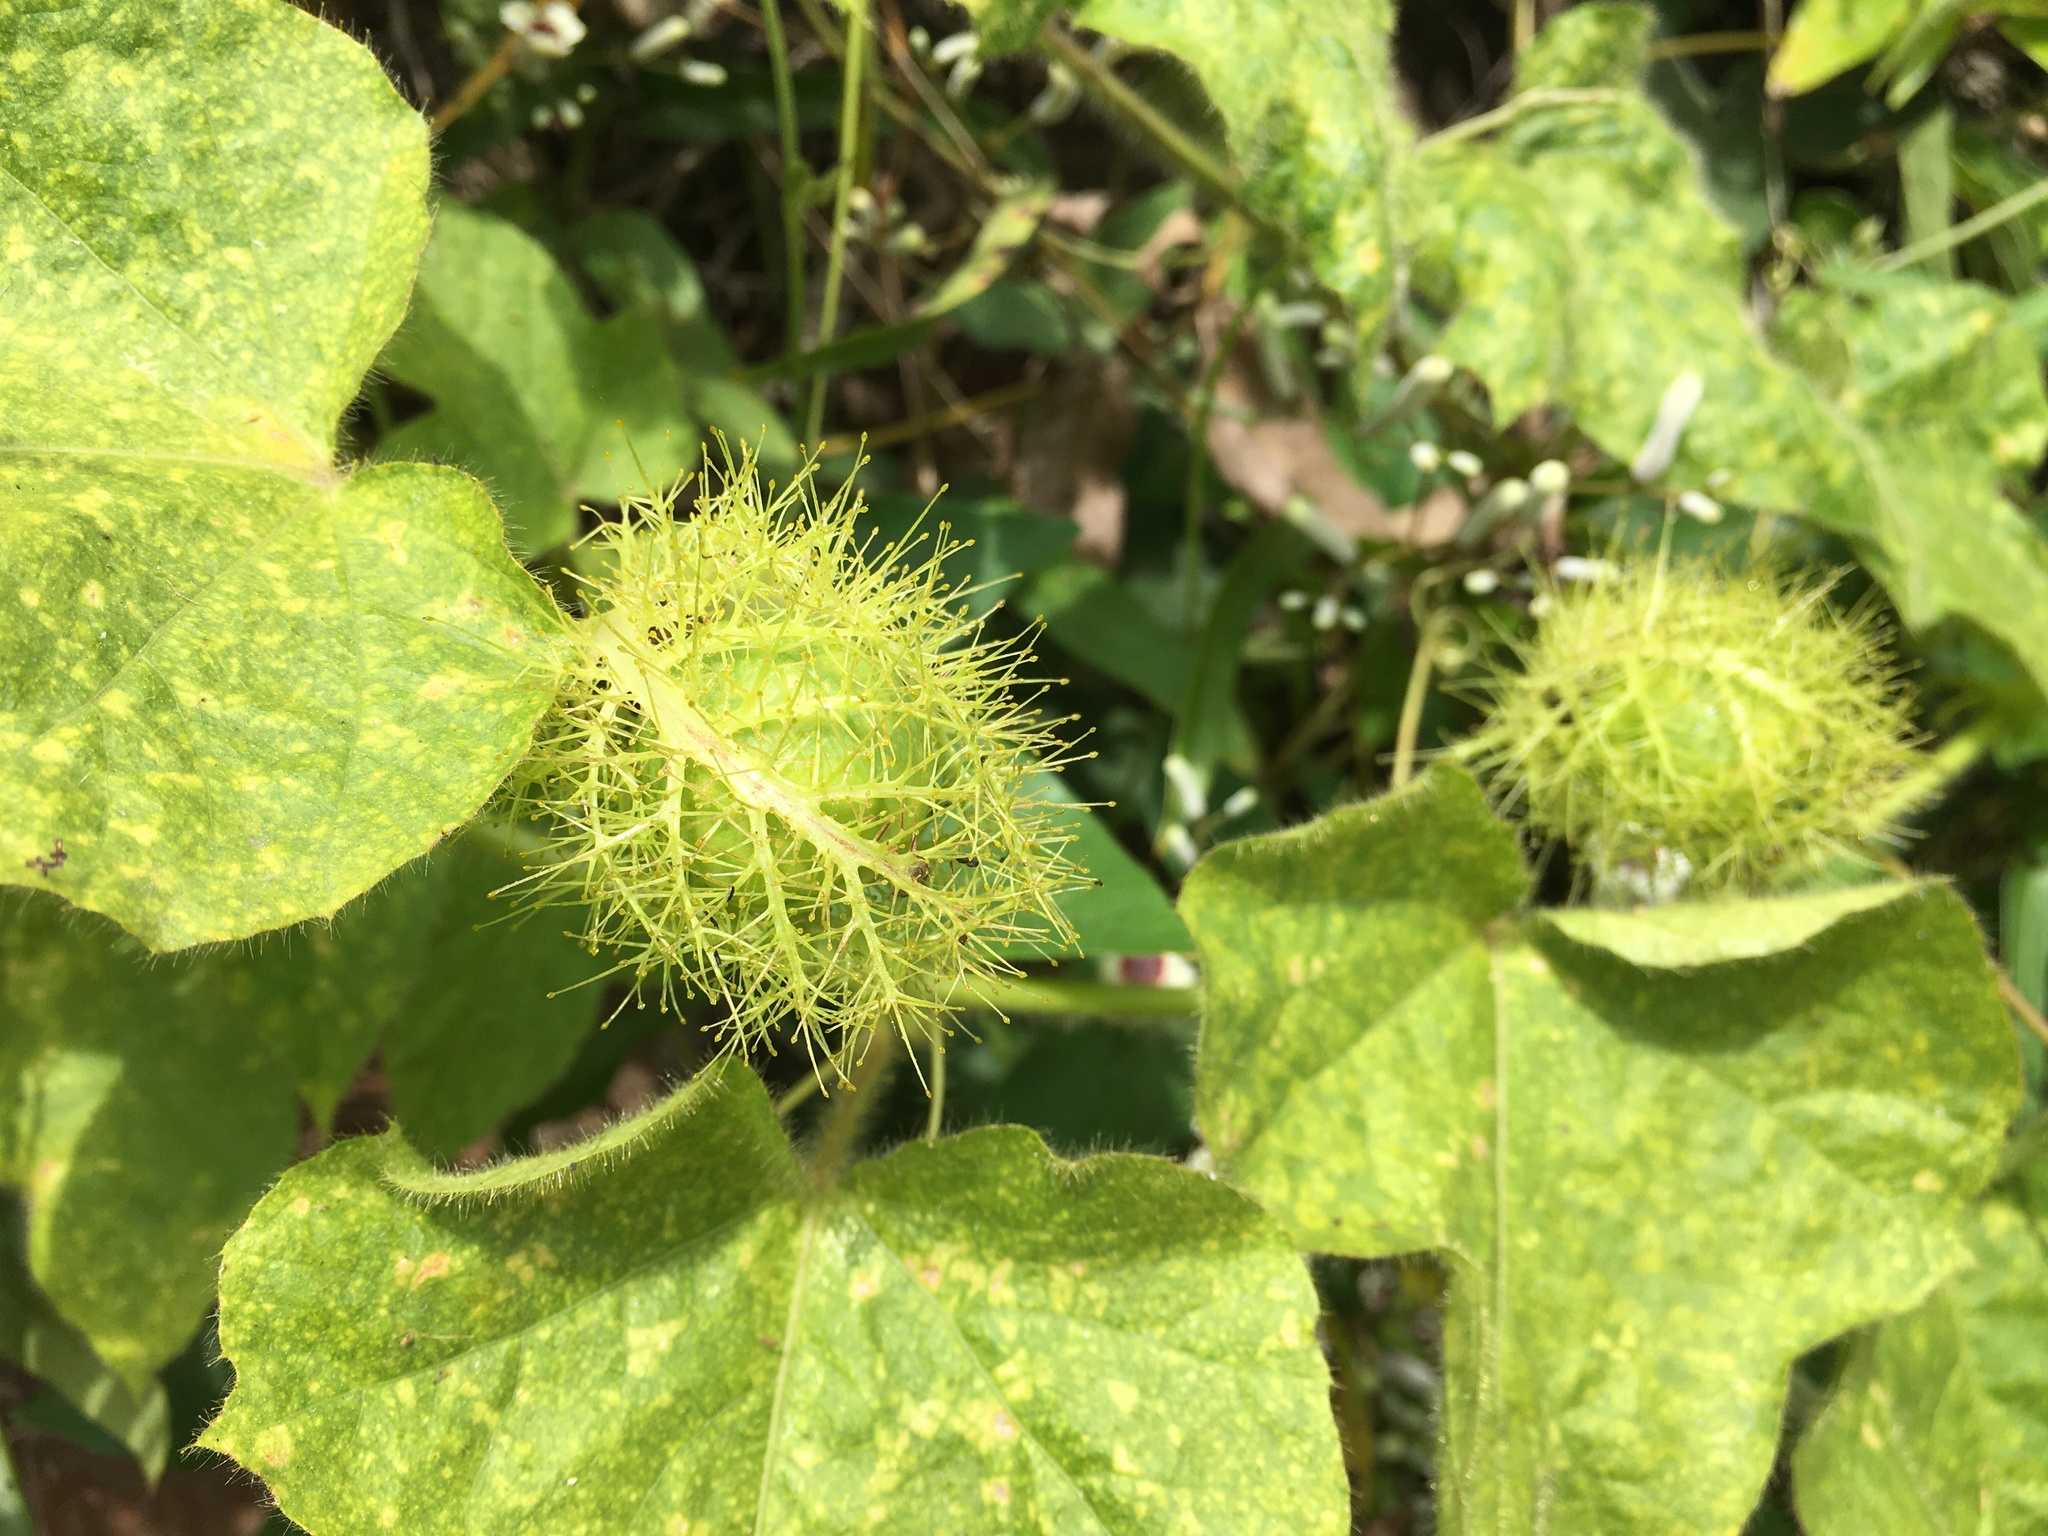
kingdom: Plantae
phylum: Tracheophyta
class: Magnoliopsida
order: Malpighiales
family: Passifloraceae
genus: Passiflora
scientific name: Passiflora vesicaria
